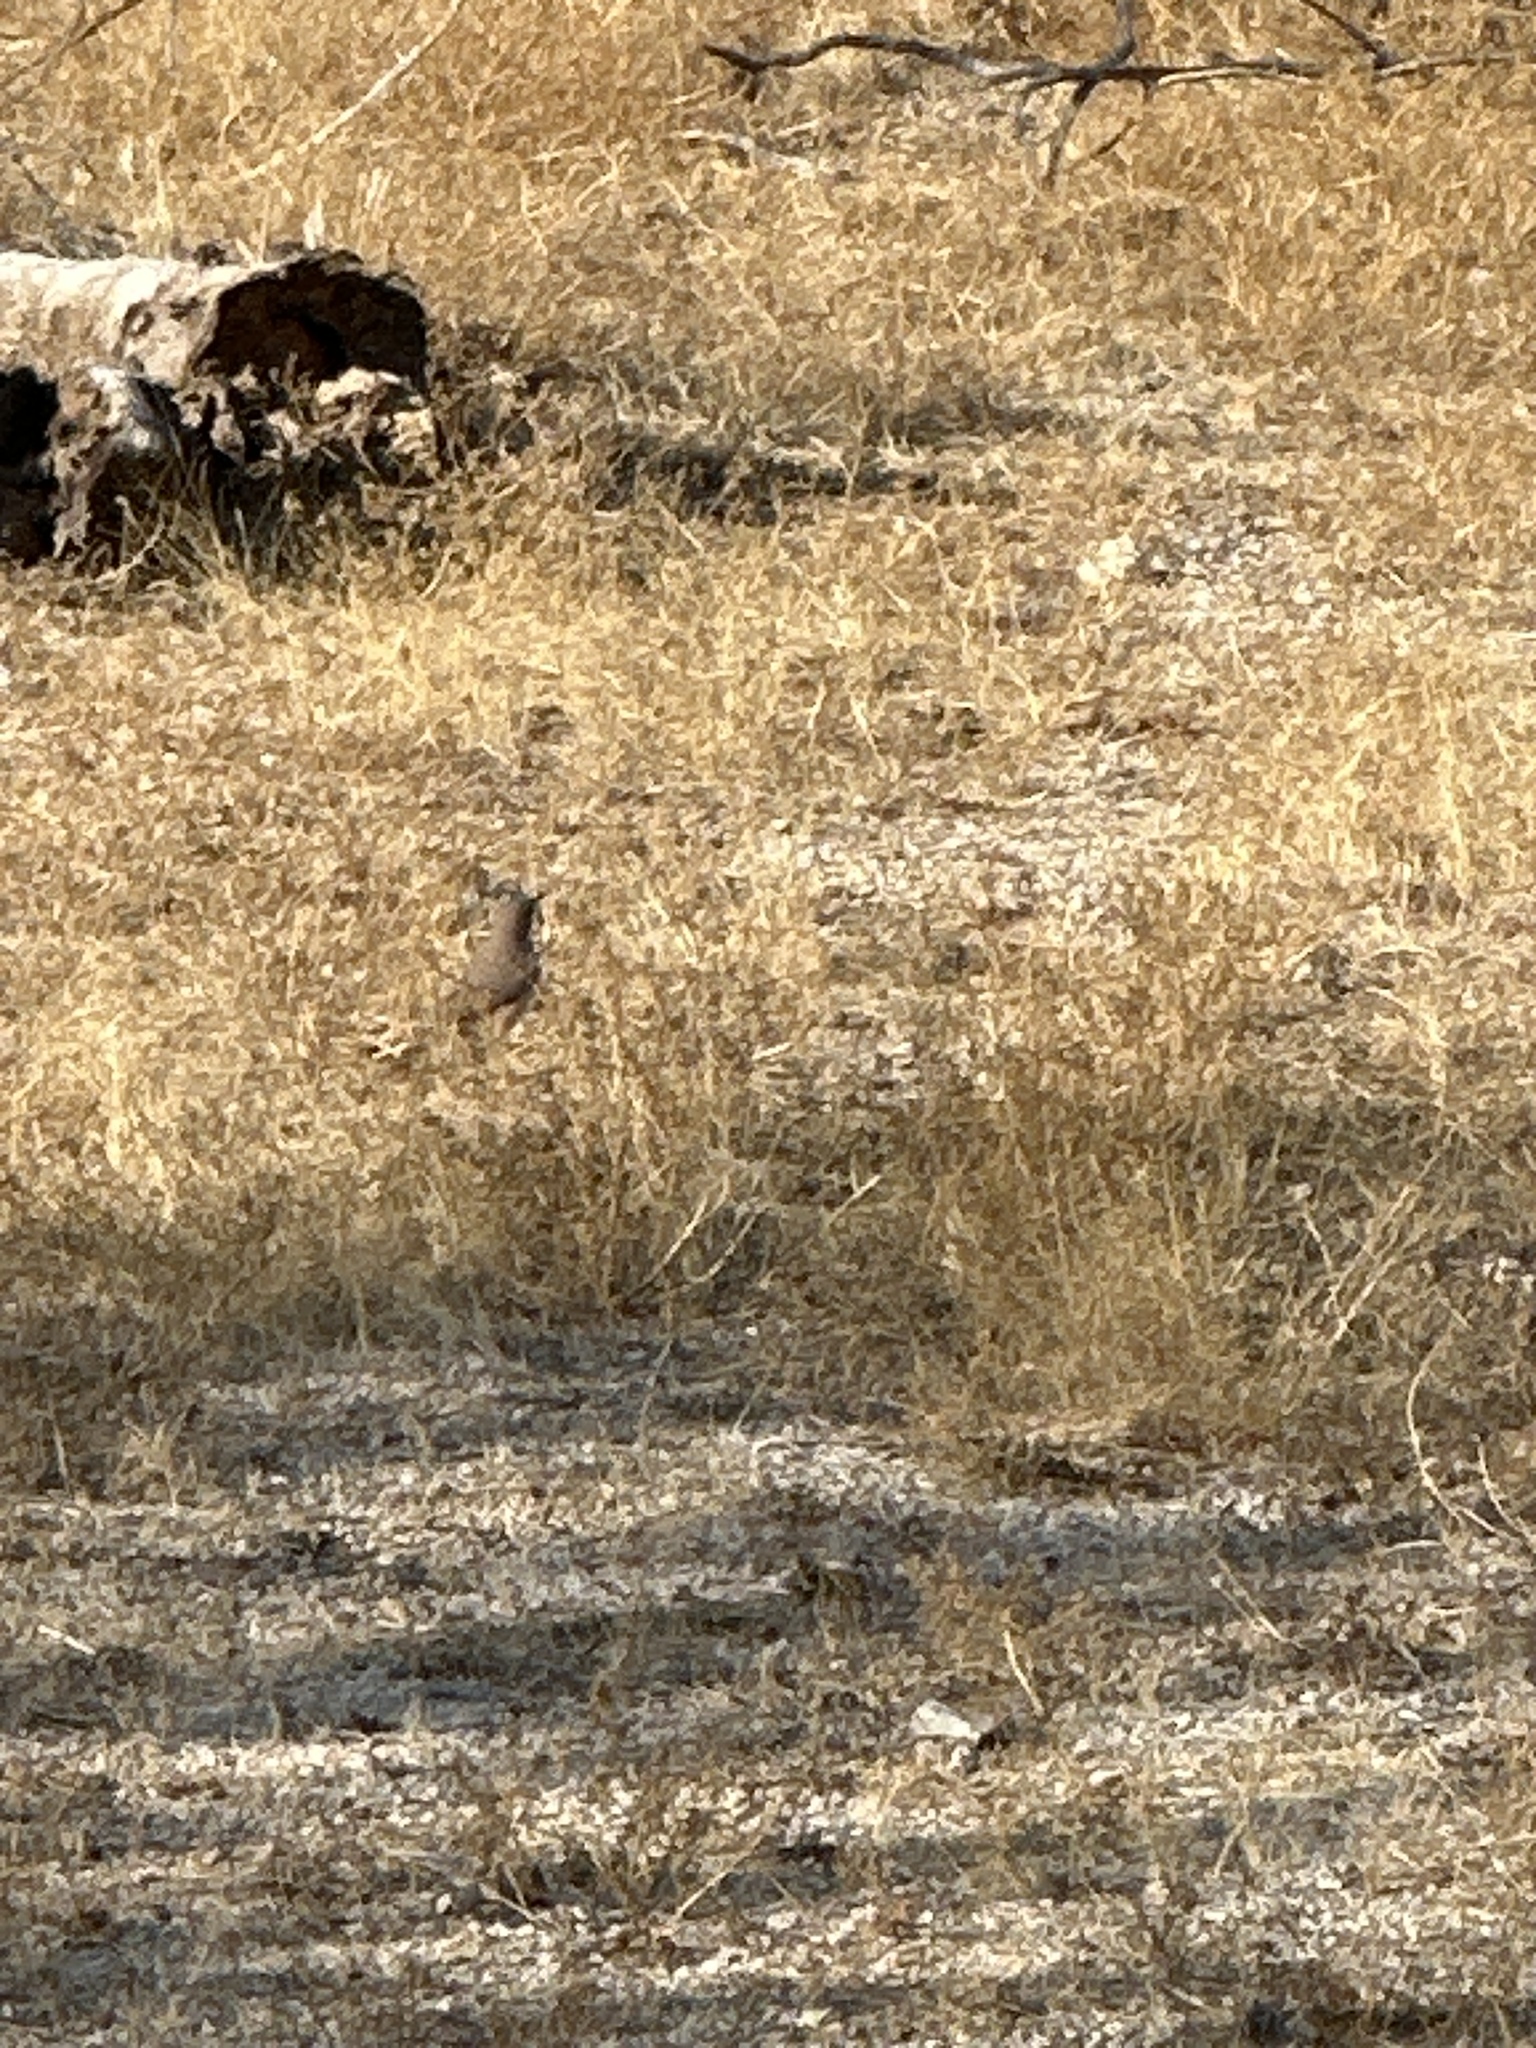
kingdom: Animalia
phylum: Chordata
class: Aves
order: Passeriformes
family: Troglodytidae
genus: Salpinctes
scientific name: Salpinctes obsoletus
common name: Rock wren
